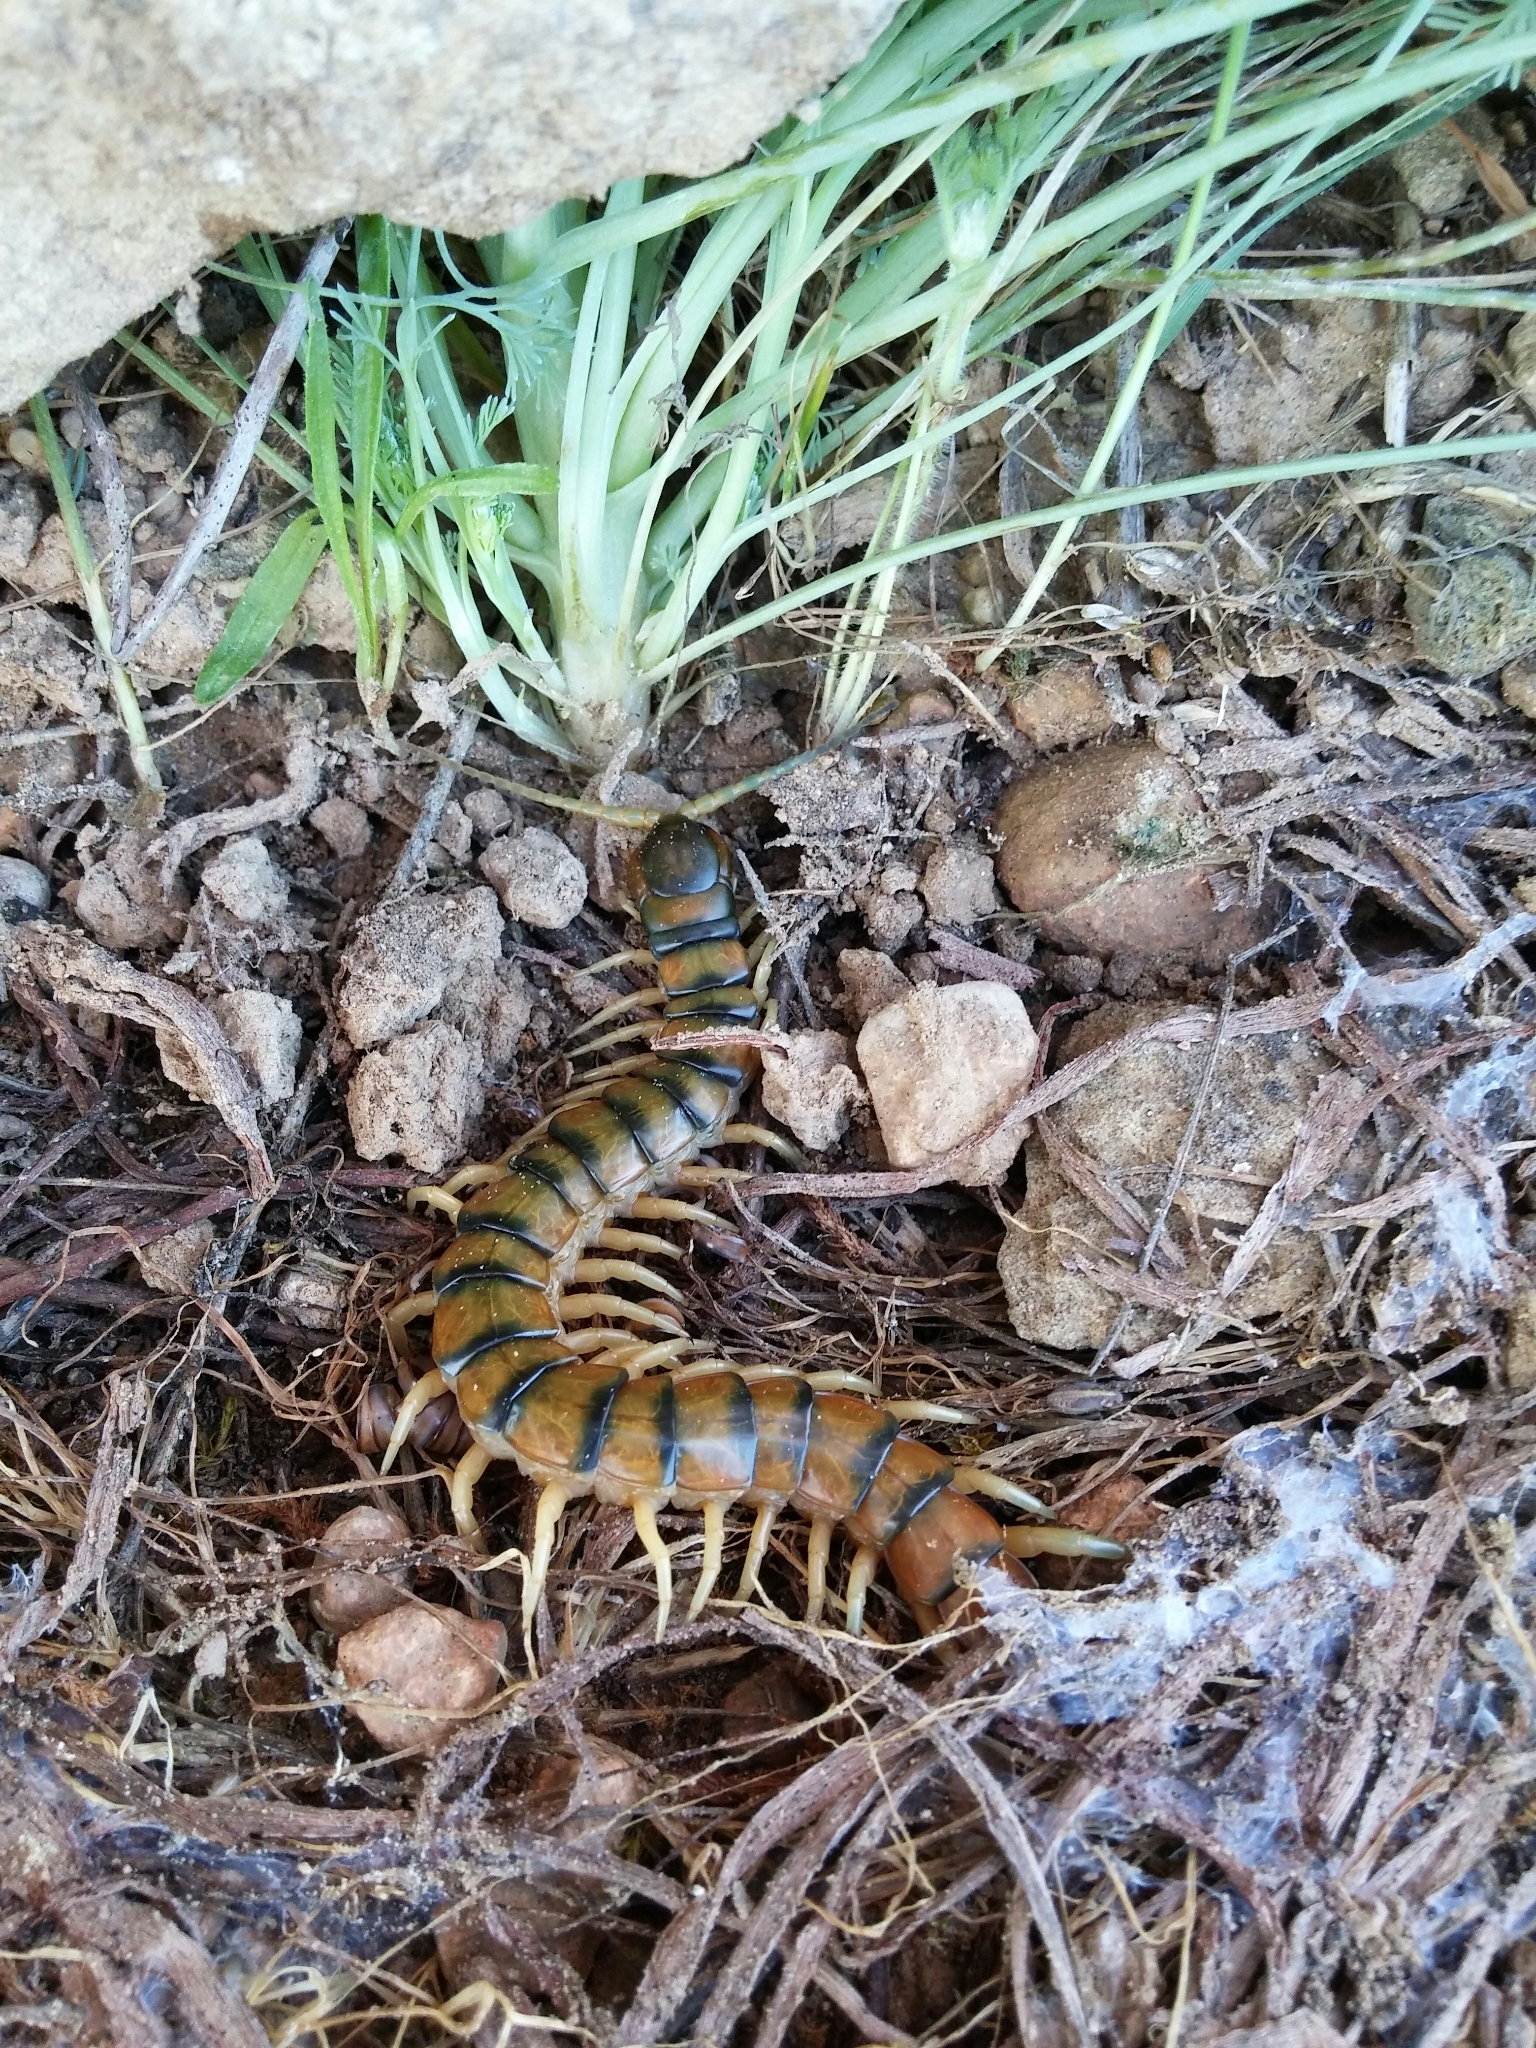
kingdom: Animalia
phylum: Arthropoda
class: Chilopoda
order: Scolopendromorpha
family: Scolopendridae
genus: Scolopendra
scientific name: Scolopendra cingulata
